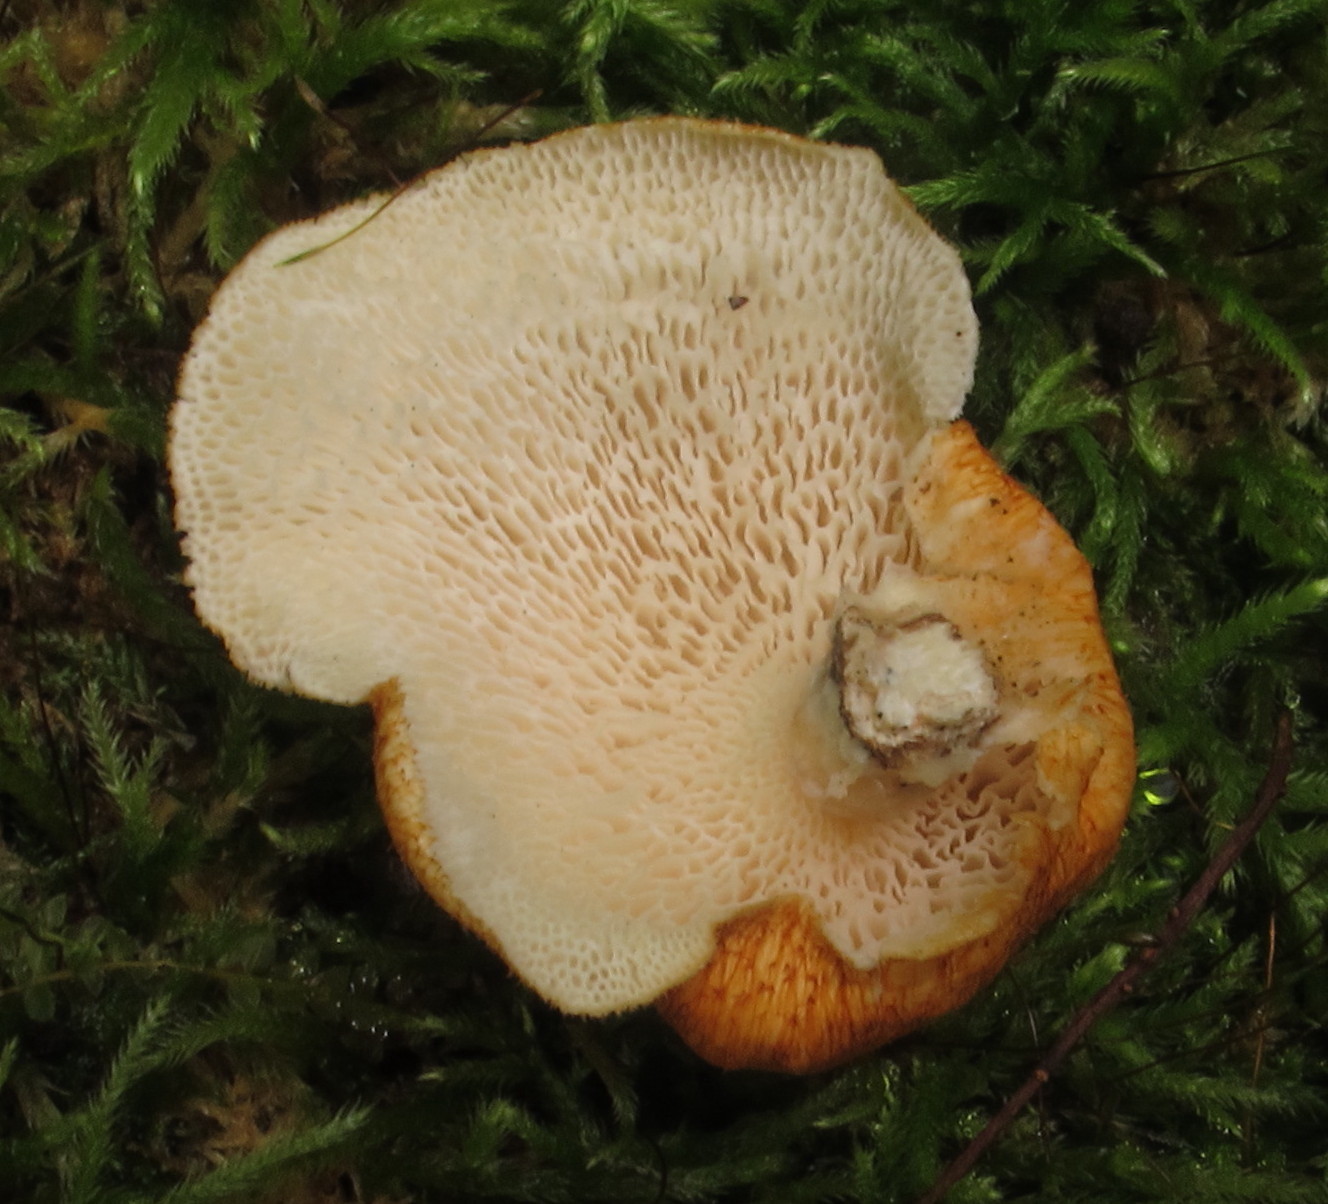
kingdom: Fungi
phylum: Basidiomycota
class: Agaricomycetes
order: Polyporales
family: Polyporaceae
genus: Neofavolus
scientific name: Neofavolus alveolaris
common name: Hexagonal-pored polypore
